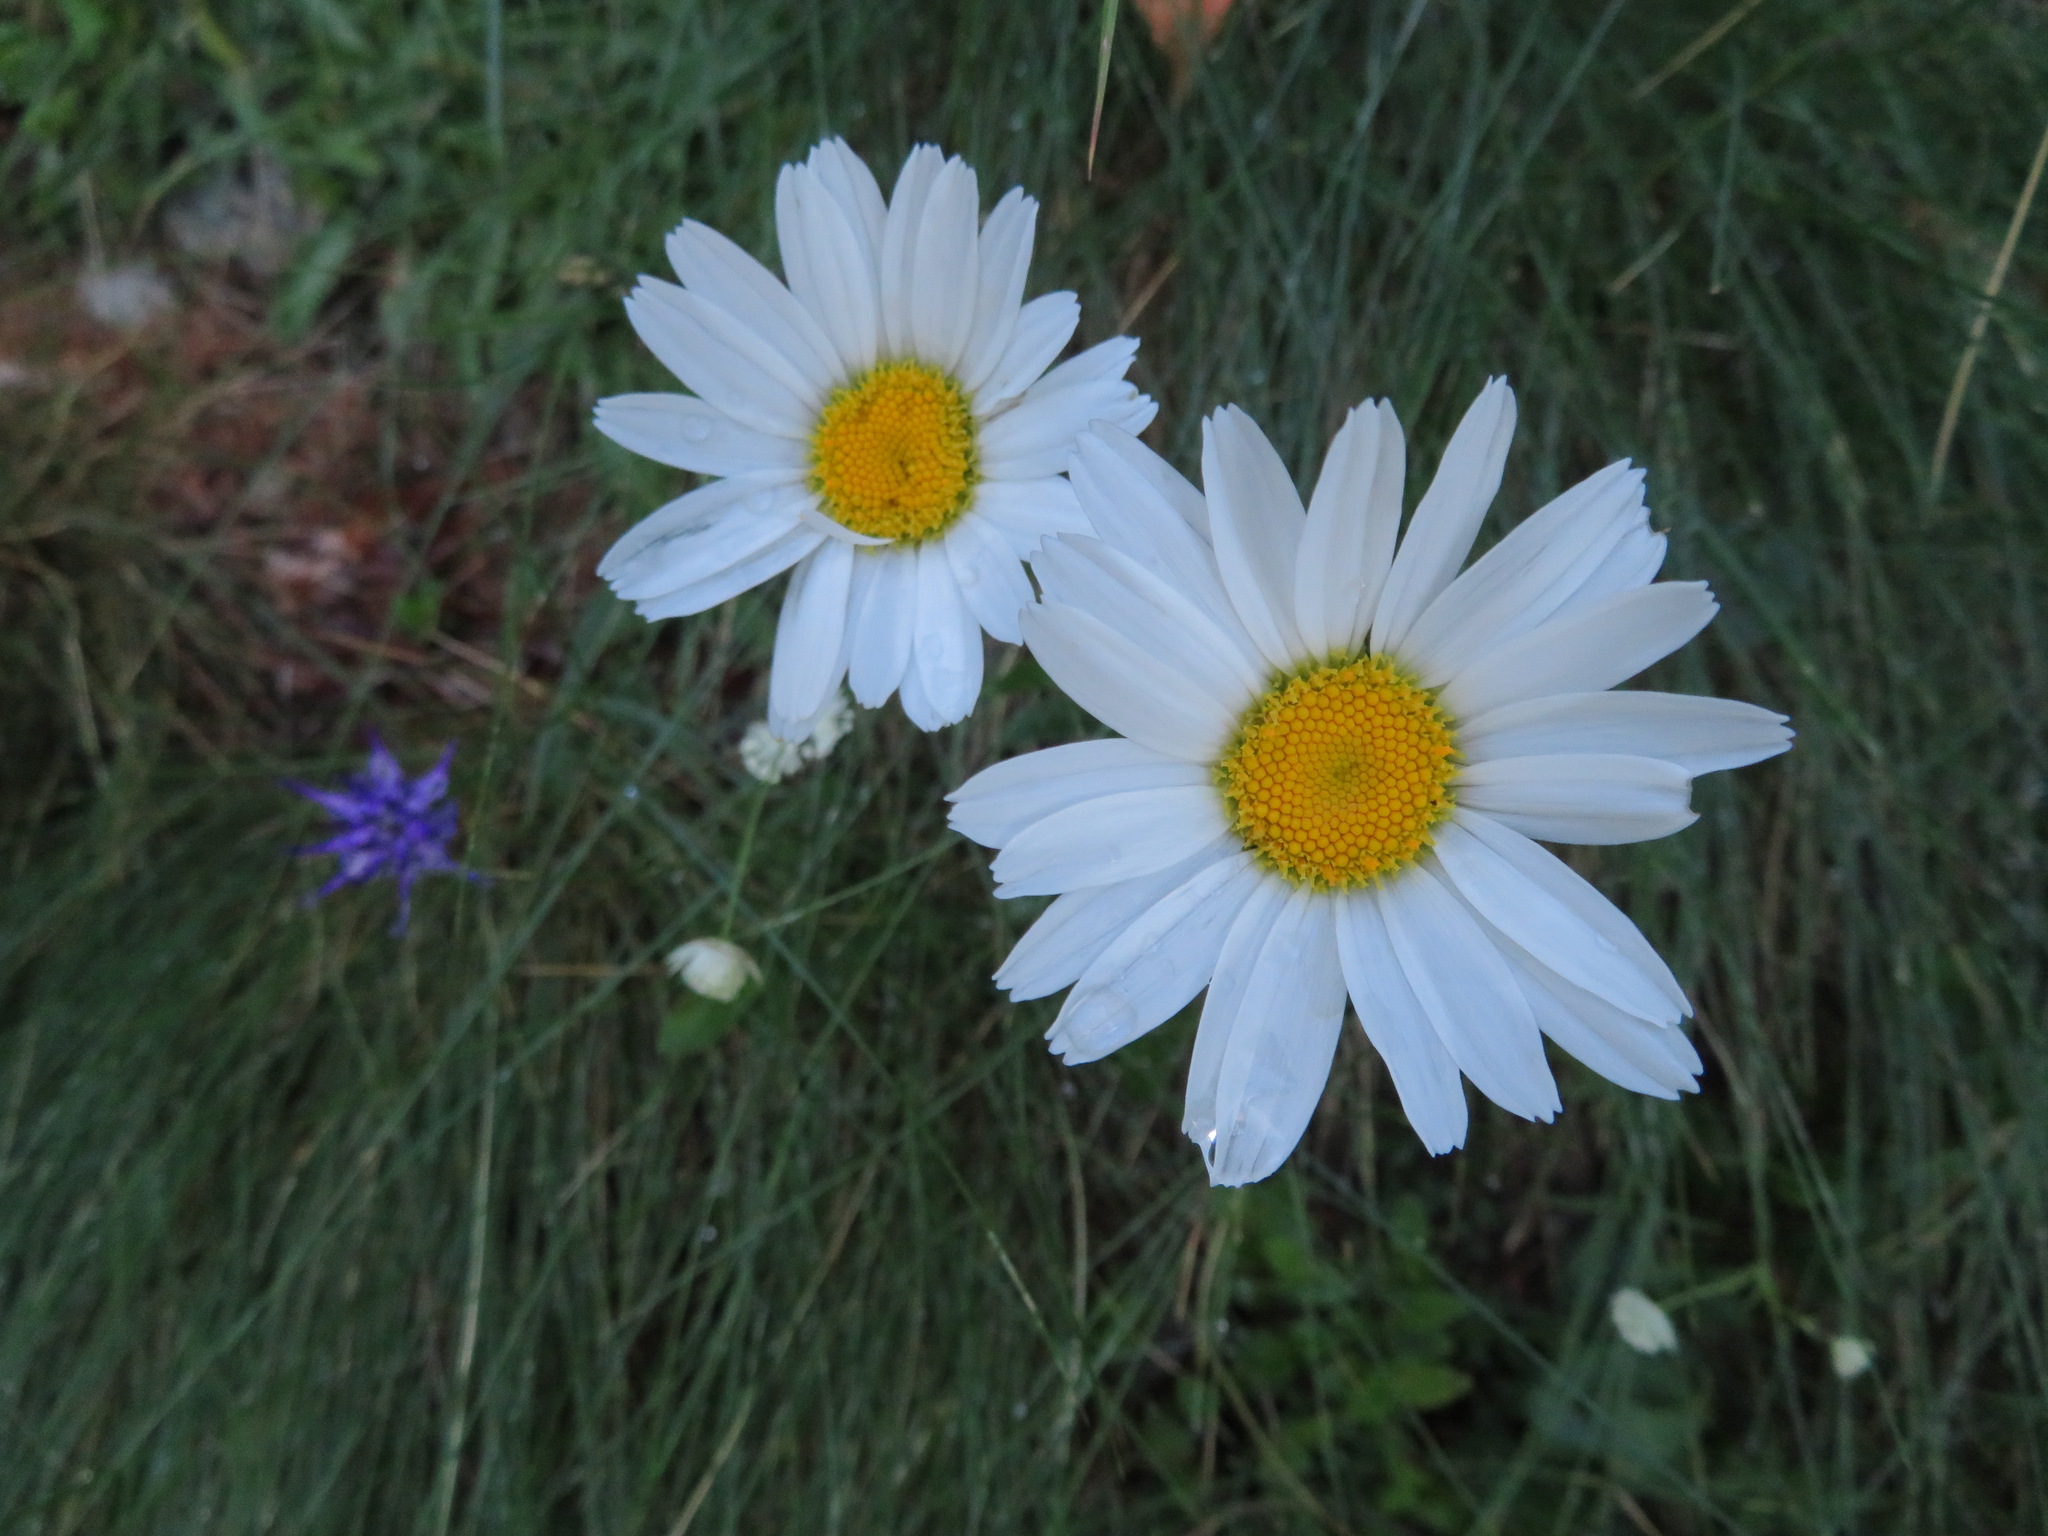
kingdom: Plantae
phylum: Tracheophyta
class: Magnoliopsida
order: Asterales
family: Asteraceae
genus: Leucanthemum
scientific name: Leucanthemum heterophyllum
